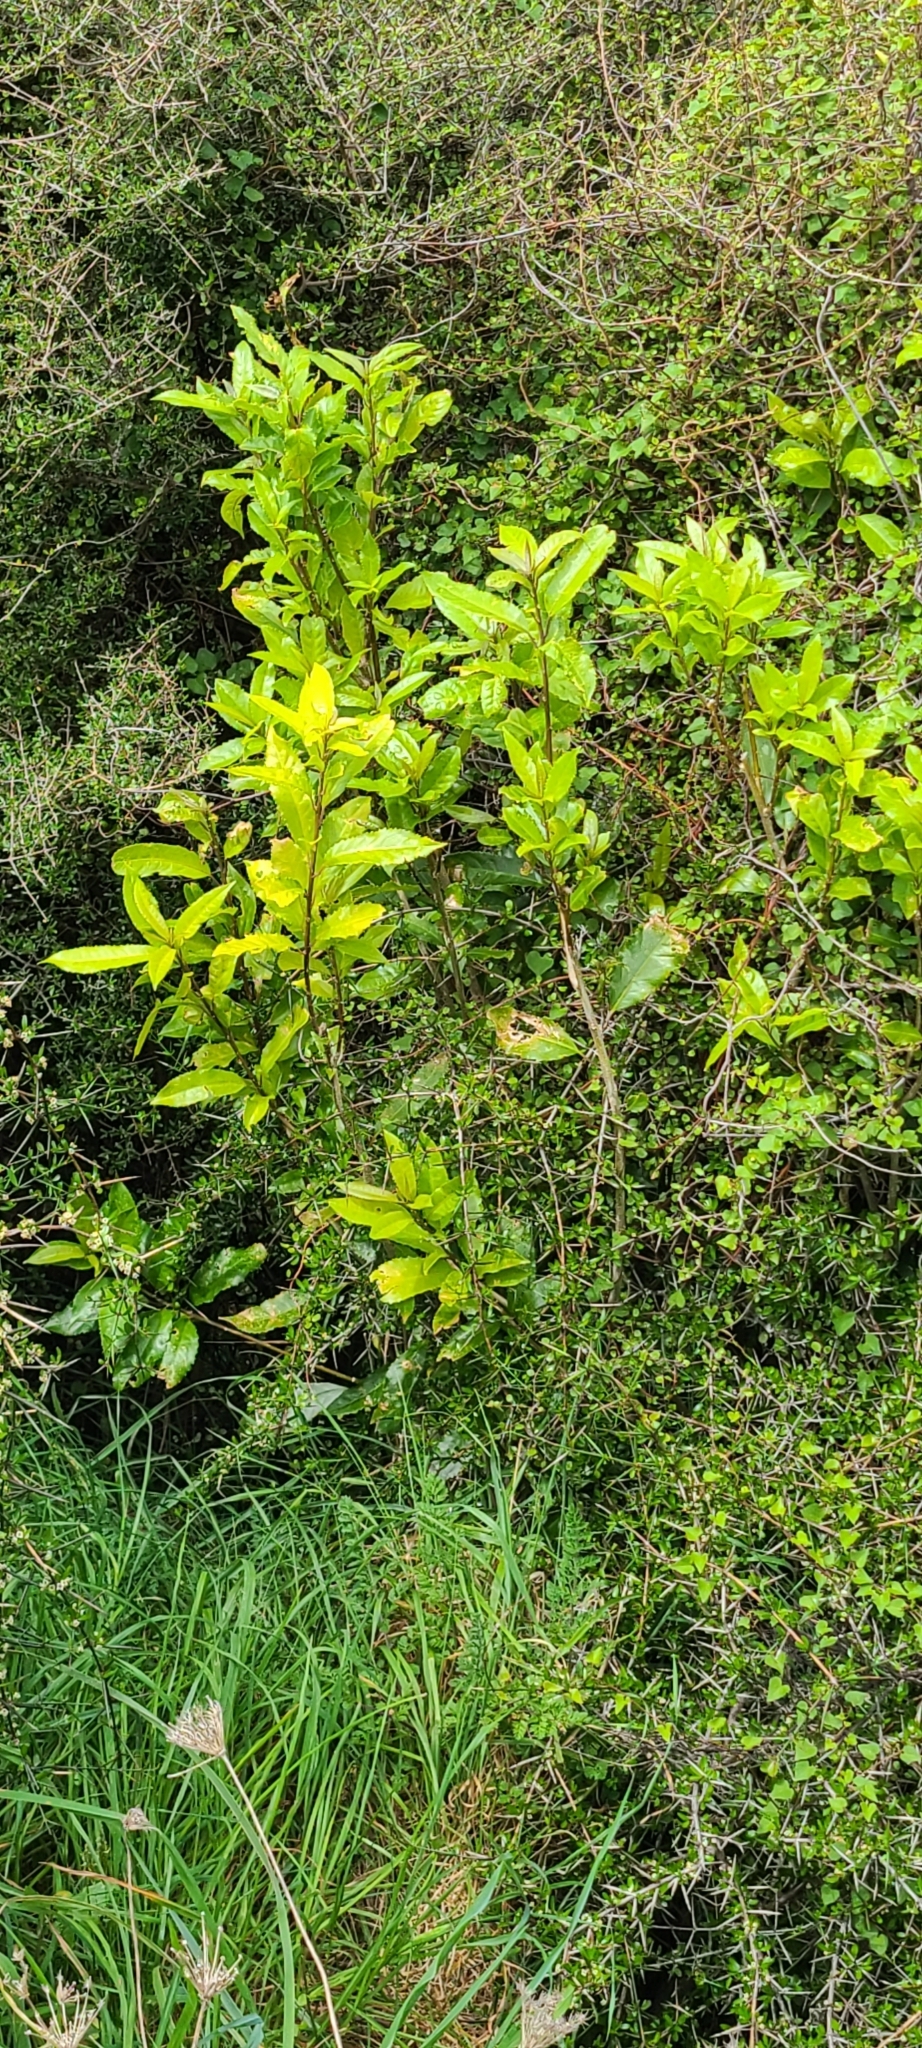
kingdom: Plantae
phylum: Tracheophyta
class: Magnoliopsida
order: Solanales
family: Convolvulaceae
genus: Calystegia
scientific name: Calystegia tuguriorum
